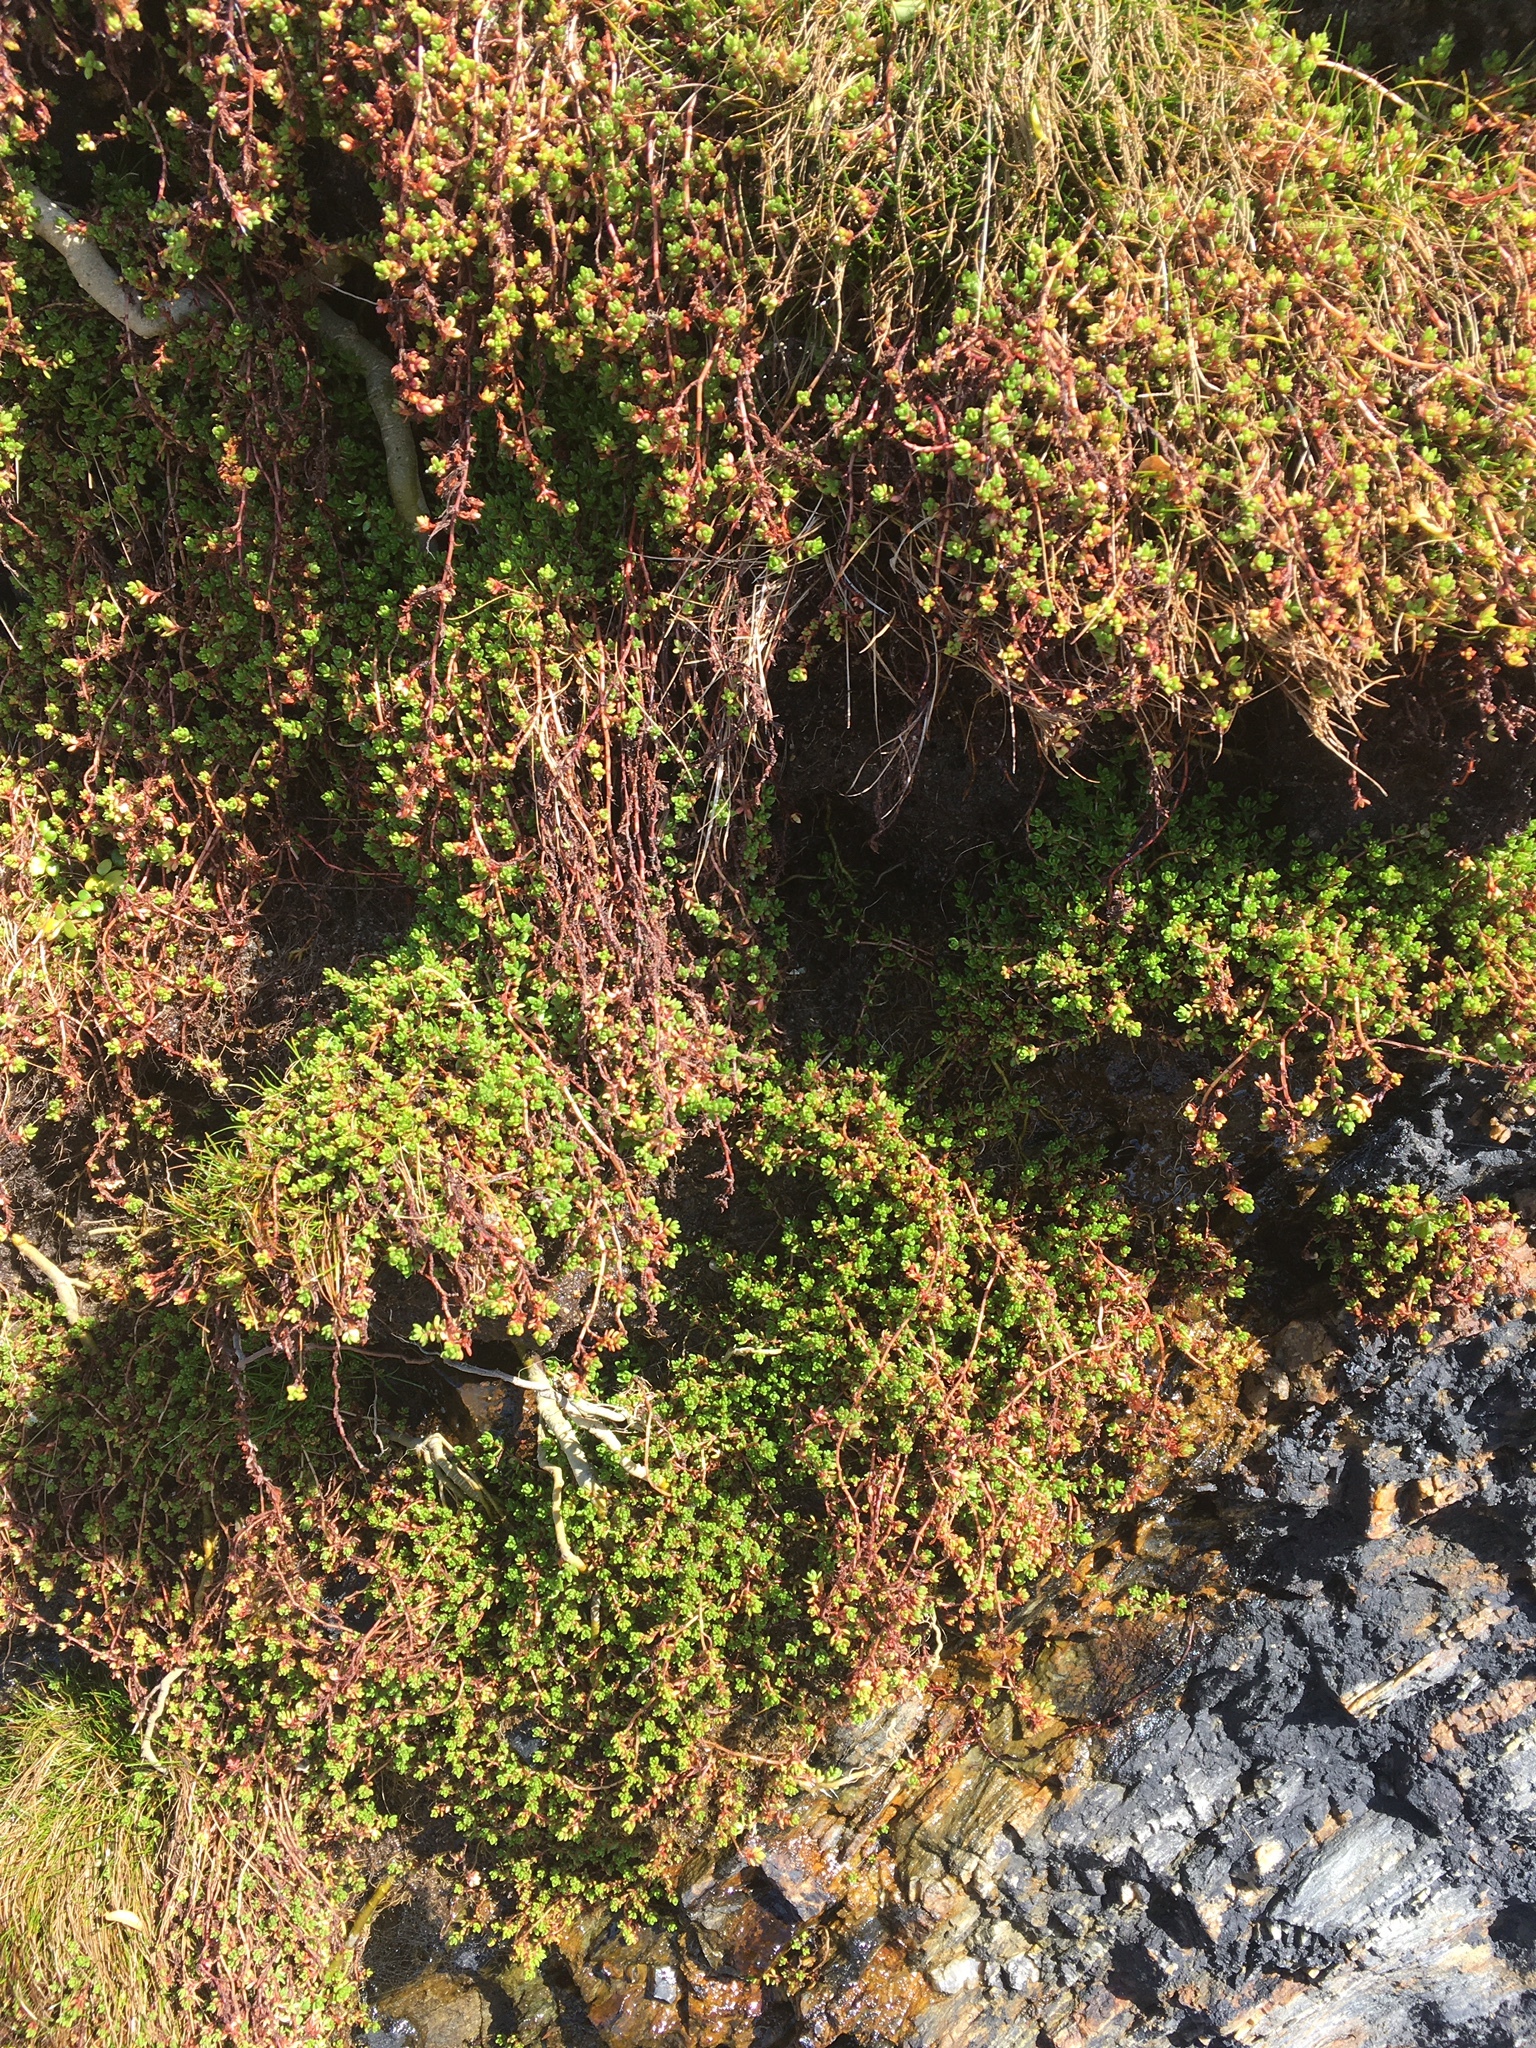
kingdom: Plantae
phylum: Tracheophyta
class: Magnoliopsida
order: Saxifragales
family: Crassulaceae
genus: Crassula
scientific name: Crassula moschata
